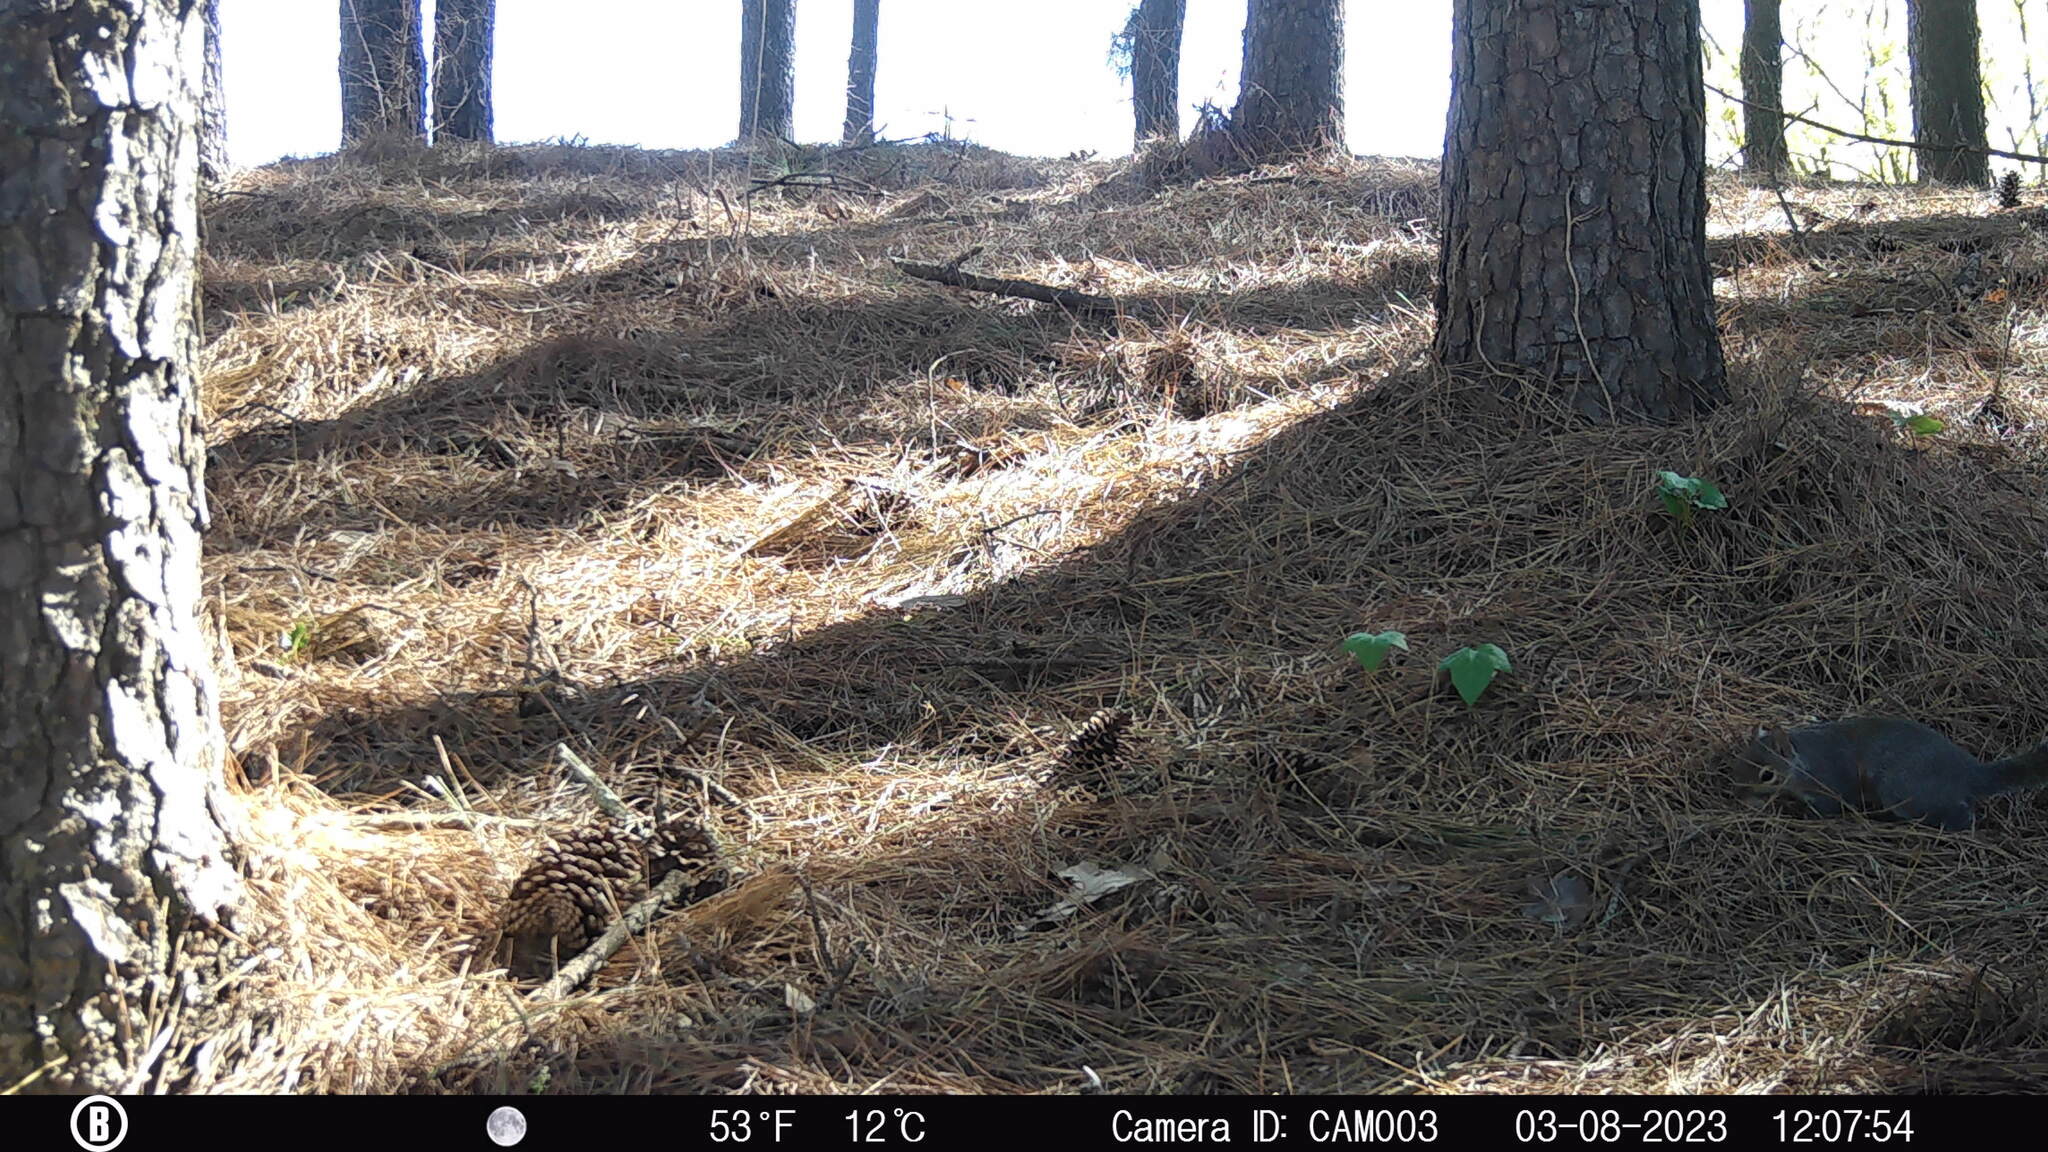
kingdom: Animalia
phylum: Chordata
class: Mammalia
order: Rodentia
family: Sciuridae
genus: Sciurus
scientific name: Sciurus carolinensis
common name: Eastern gray squirrel
